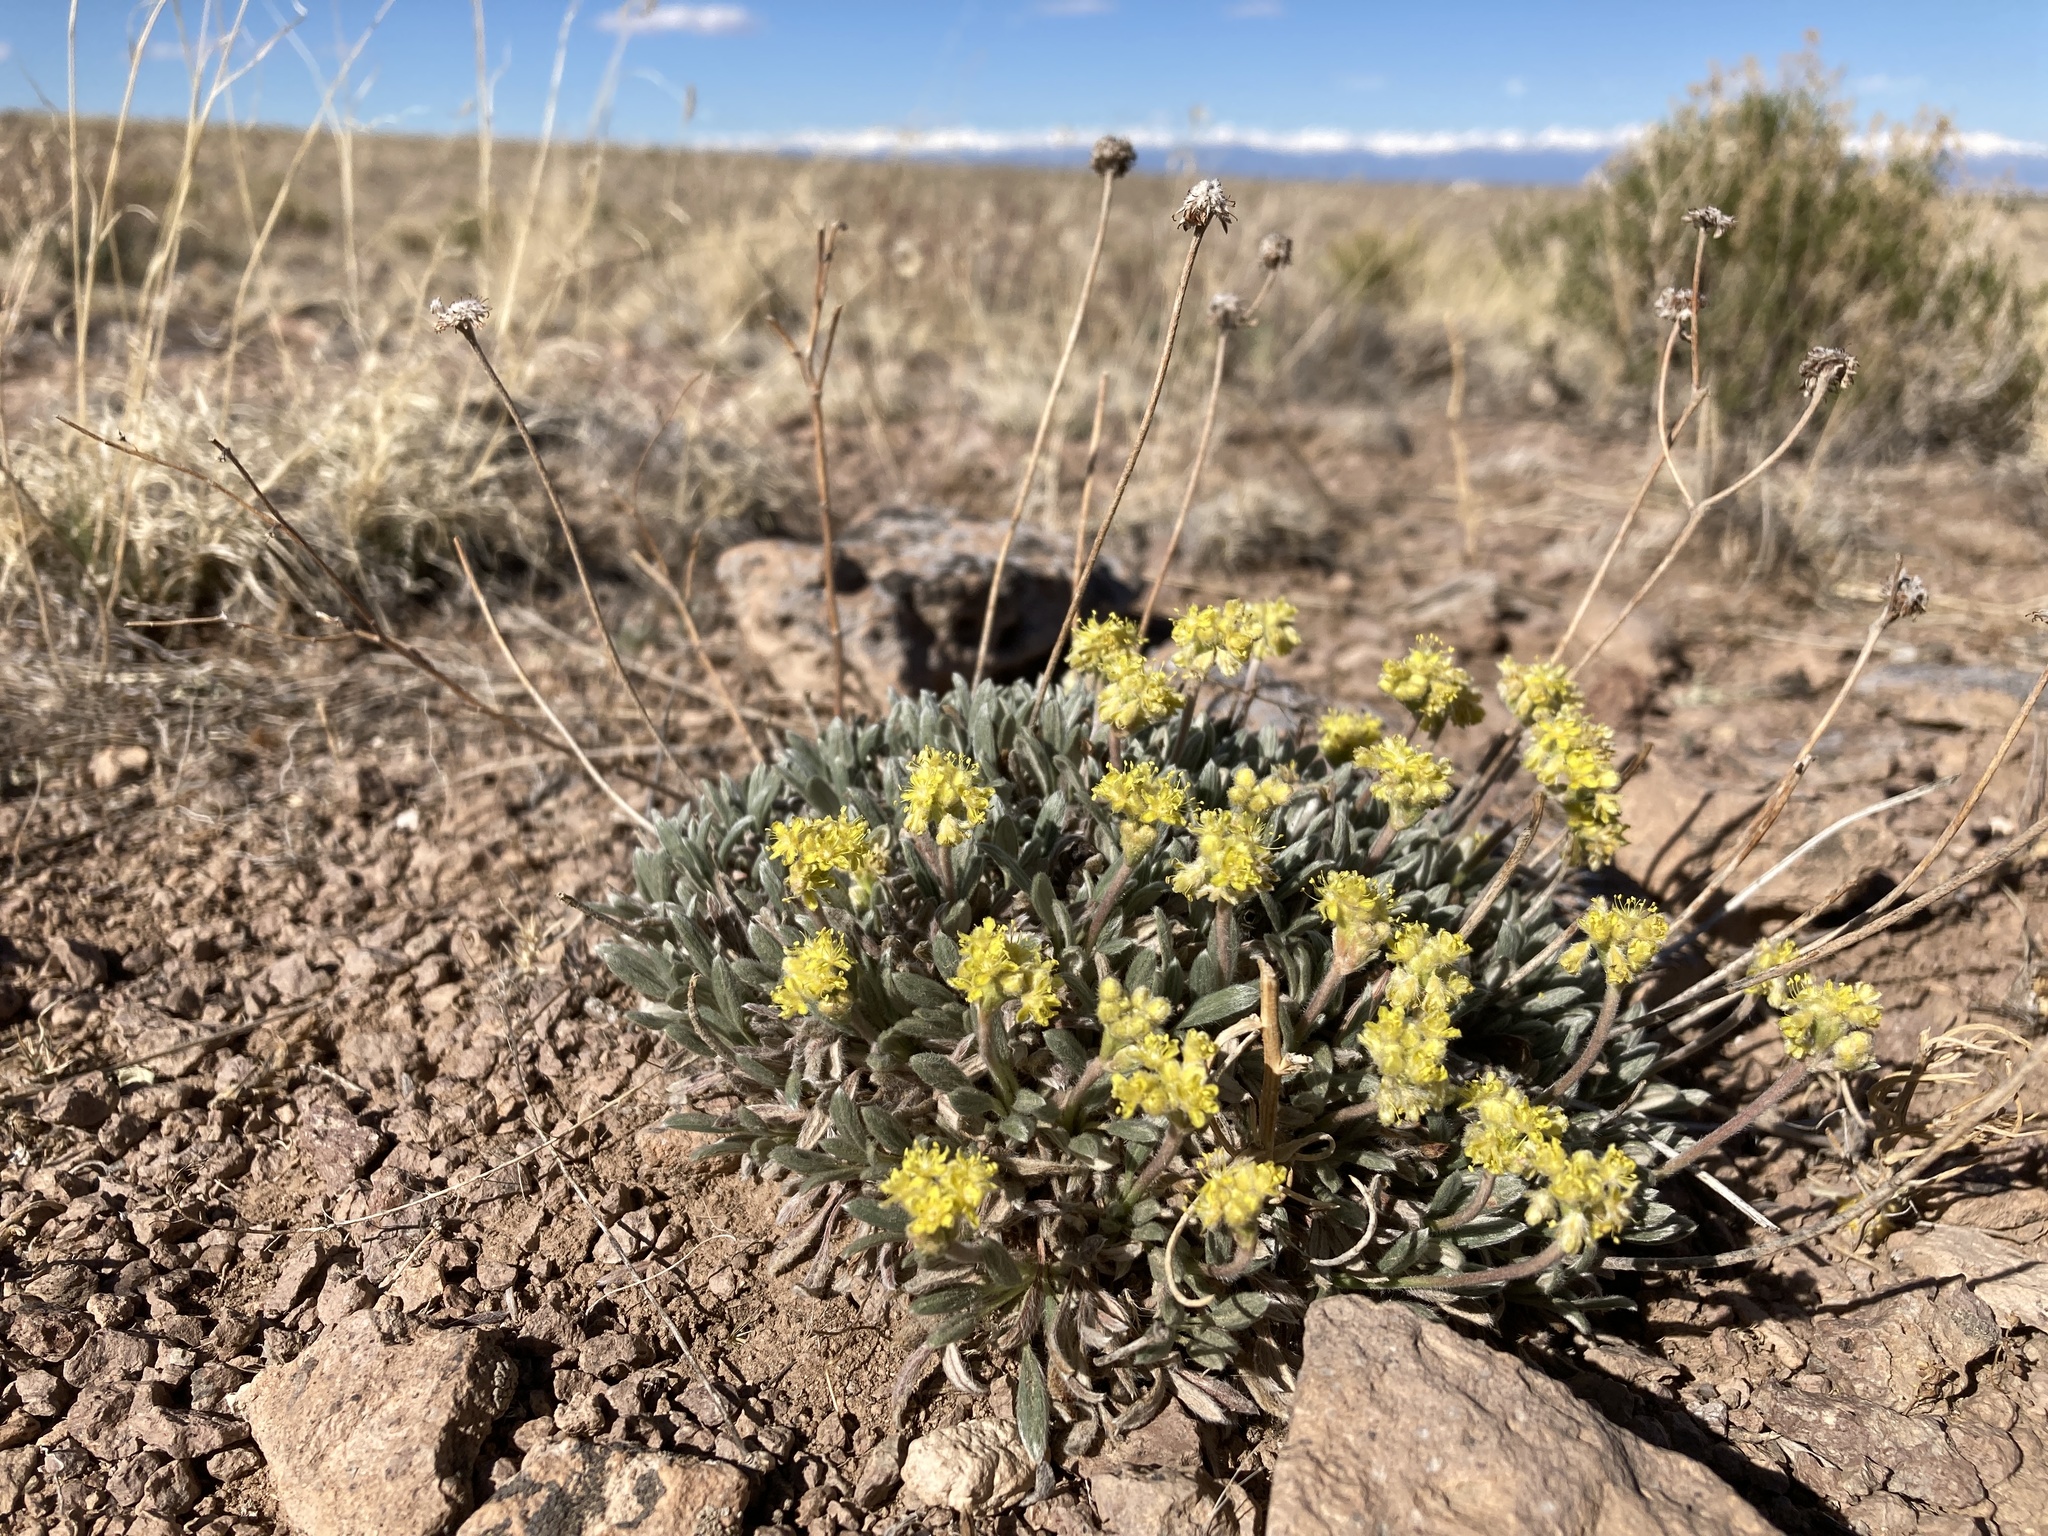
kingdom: Plantae
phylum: Tracheophyta
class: Magnoliopsida
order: Caryophyllales
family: Polygonaceae
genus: Eriogonum
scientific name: Eriogonum lachnogynum
